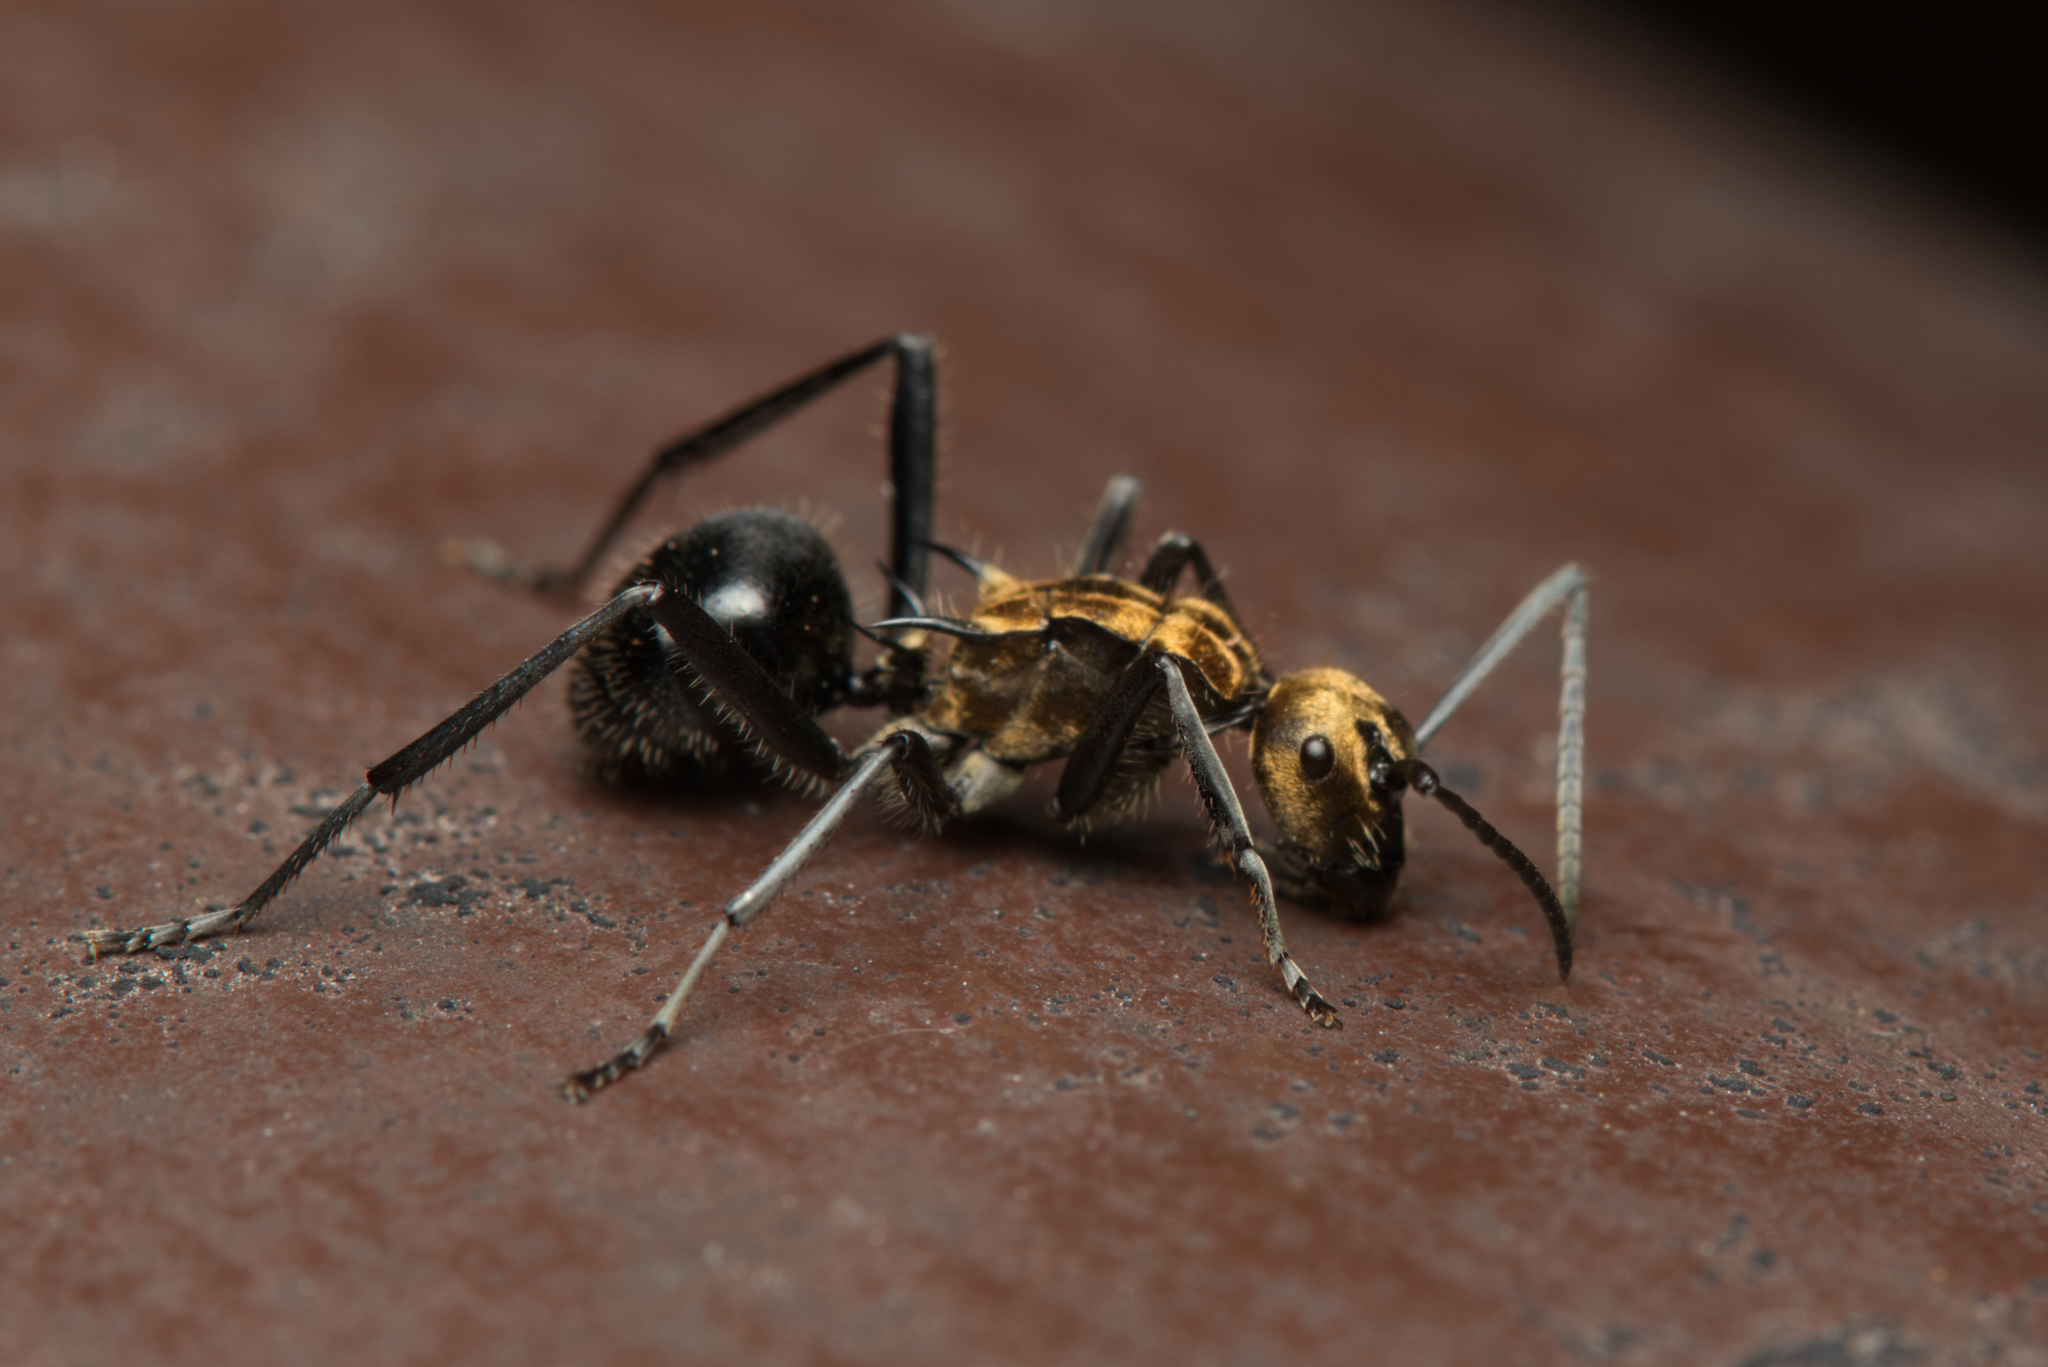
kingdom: Animalia
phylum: Arthropoda
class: Insecta
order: Hymenoptera
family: Formicidae
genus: Polyrhachis
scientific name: Polyrhachis semiaurata
